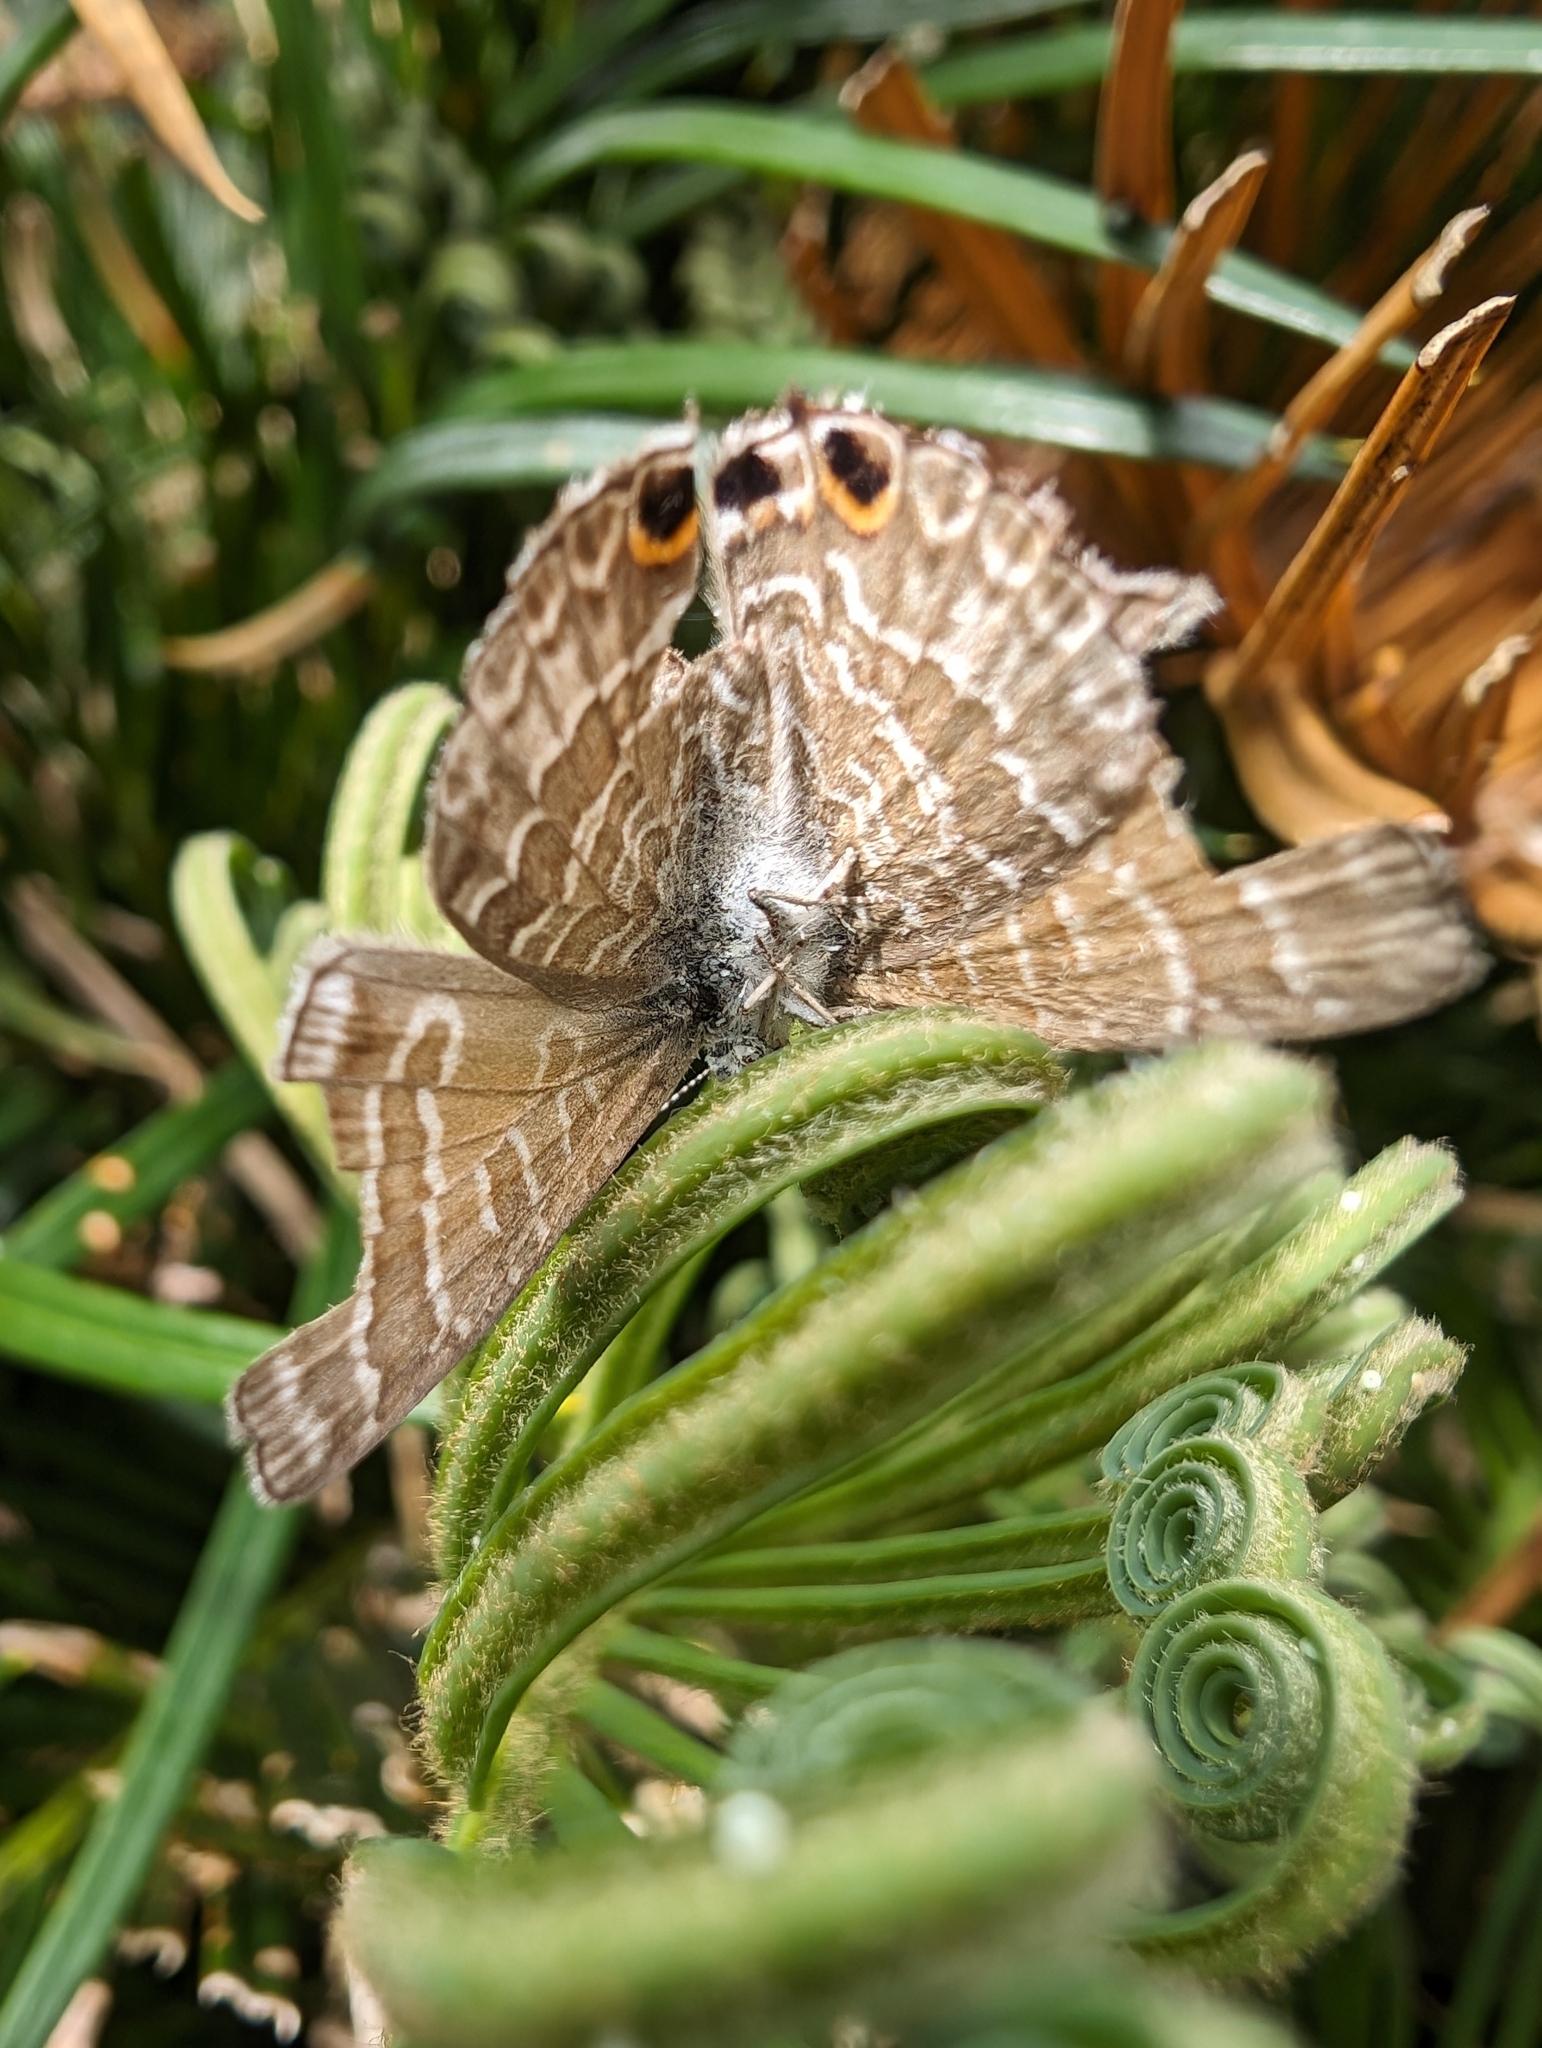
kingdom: Animalia
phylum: Arthropoda
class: Insecta
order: Lepidoptera
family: Lycaenidae
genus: Theclinesthes
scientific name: Theclinesthes onycha
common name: Cycad blue
